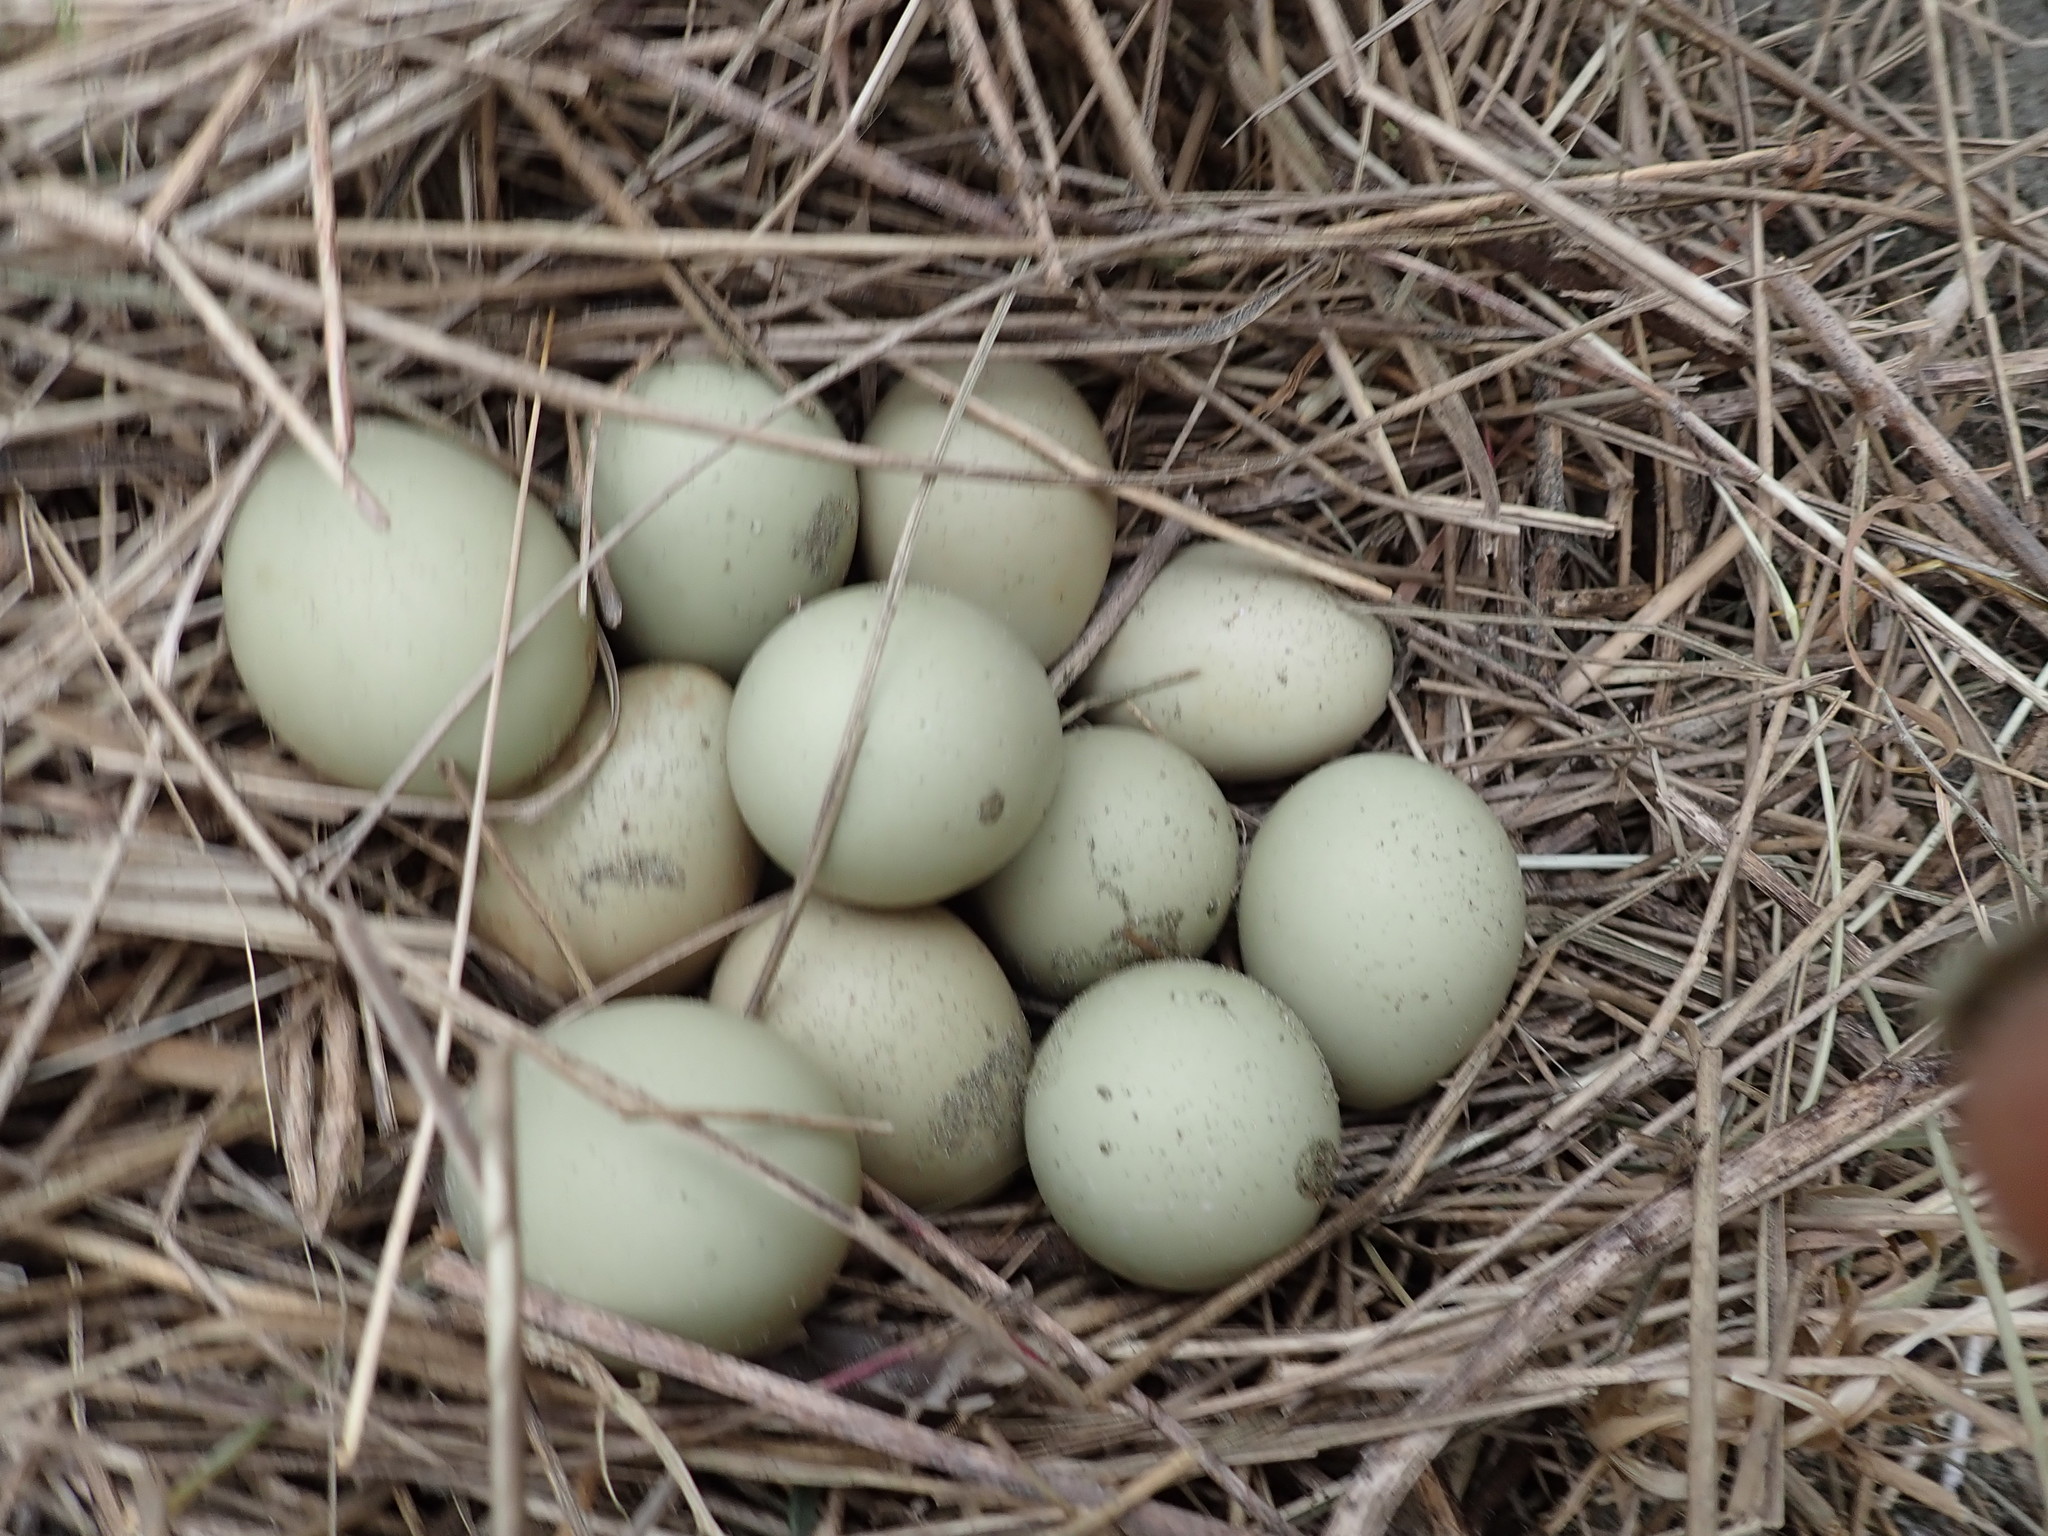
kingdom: Animalia
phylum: Chordata
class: Aves
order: Galliformes
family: Phasianidae
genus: Phasianus
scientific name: Phasianus colchicus
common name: Common pheasant
